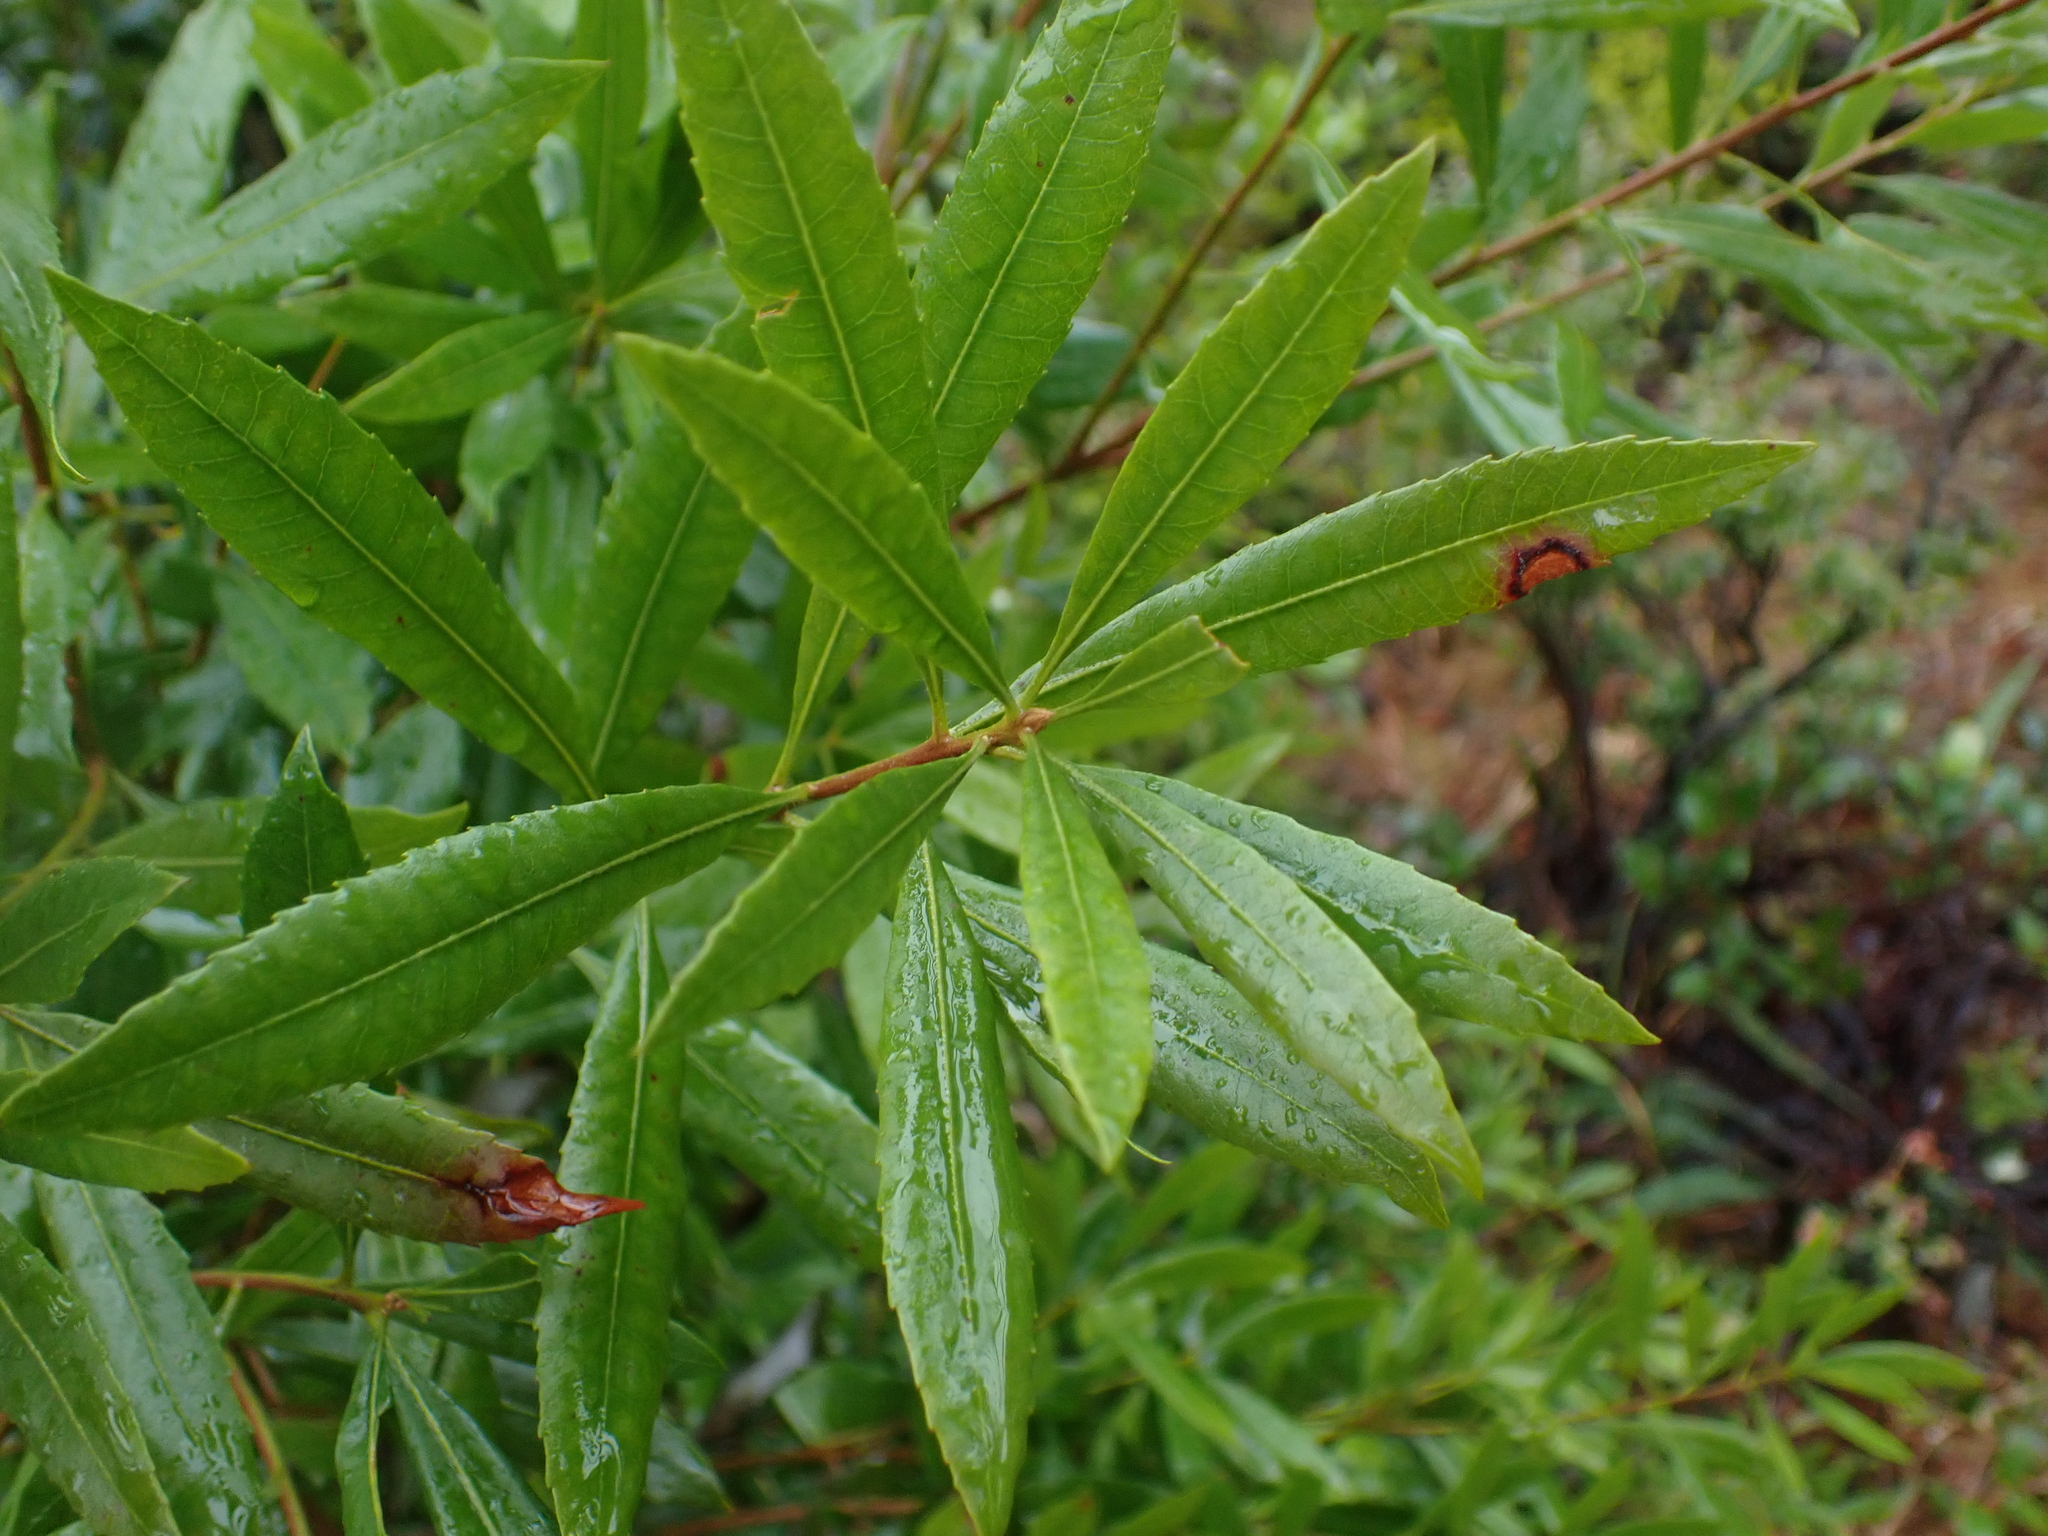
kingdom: Plantae
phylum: Tracheophyta
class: Magnoliopsida
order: Fagales
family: Myricaceae
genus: Morella
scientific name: Morella californica
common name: California wax-myrtle
